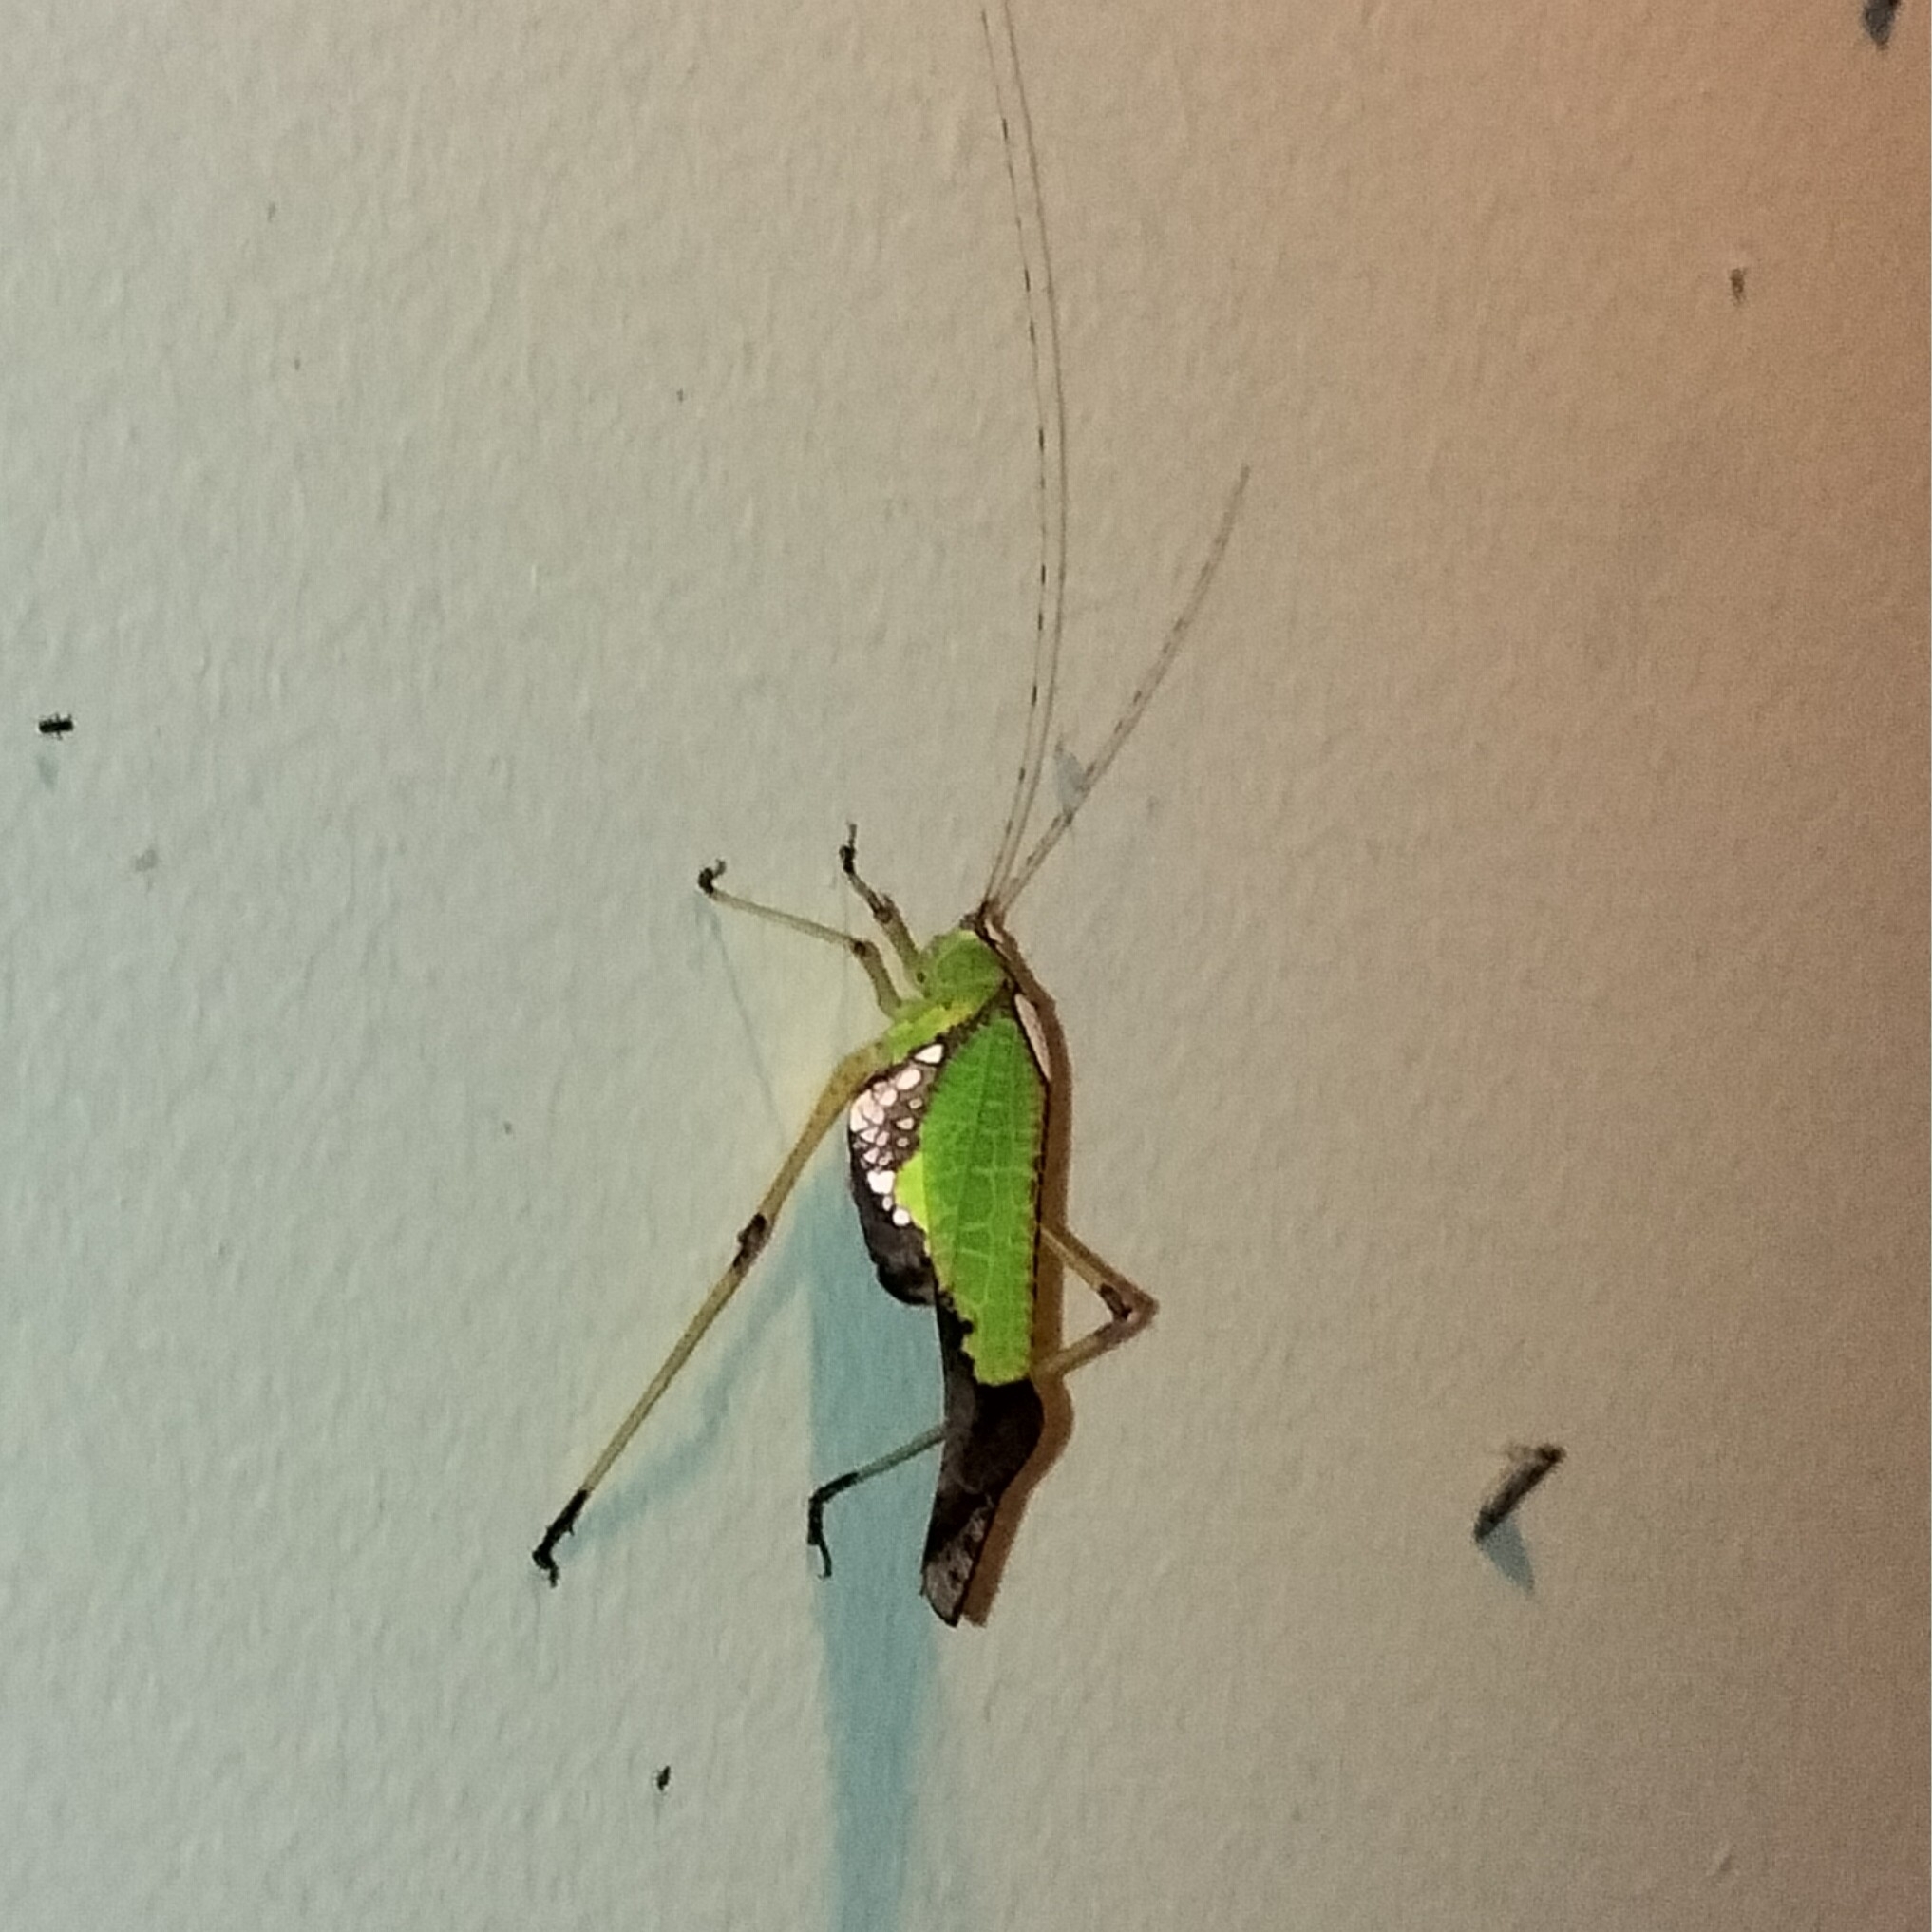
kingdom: Animalia
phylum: Arthropoda
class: Insecta
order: Orthoptera
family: Tettigoniidae
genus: Deflorita
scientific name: Deflorita deflorita
